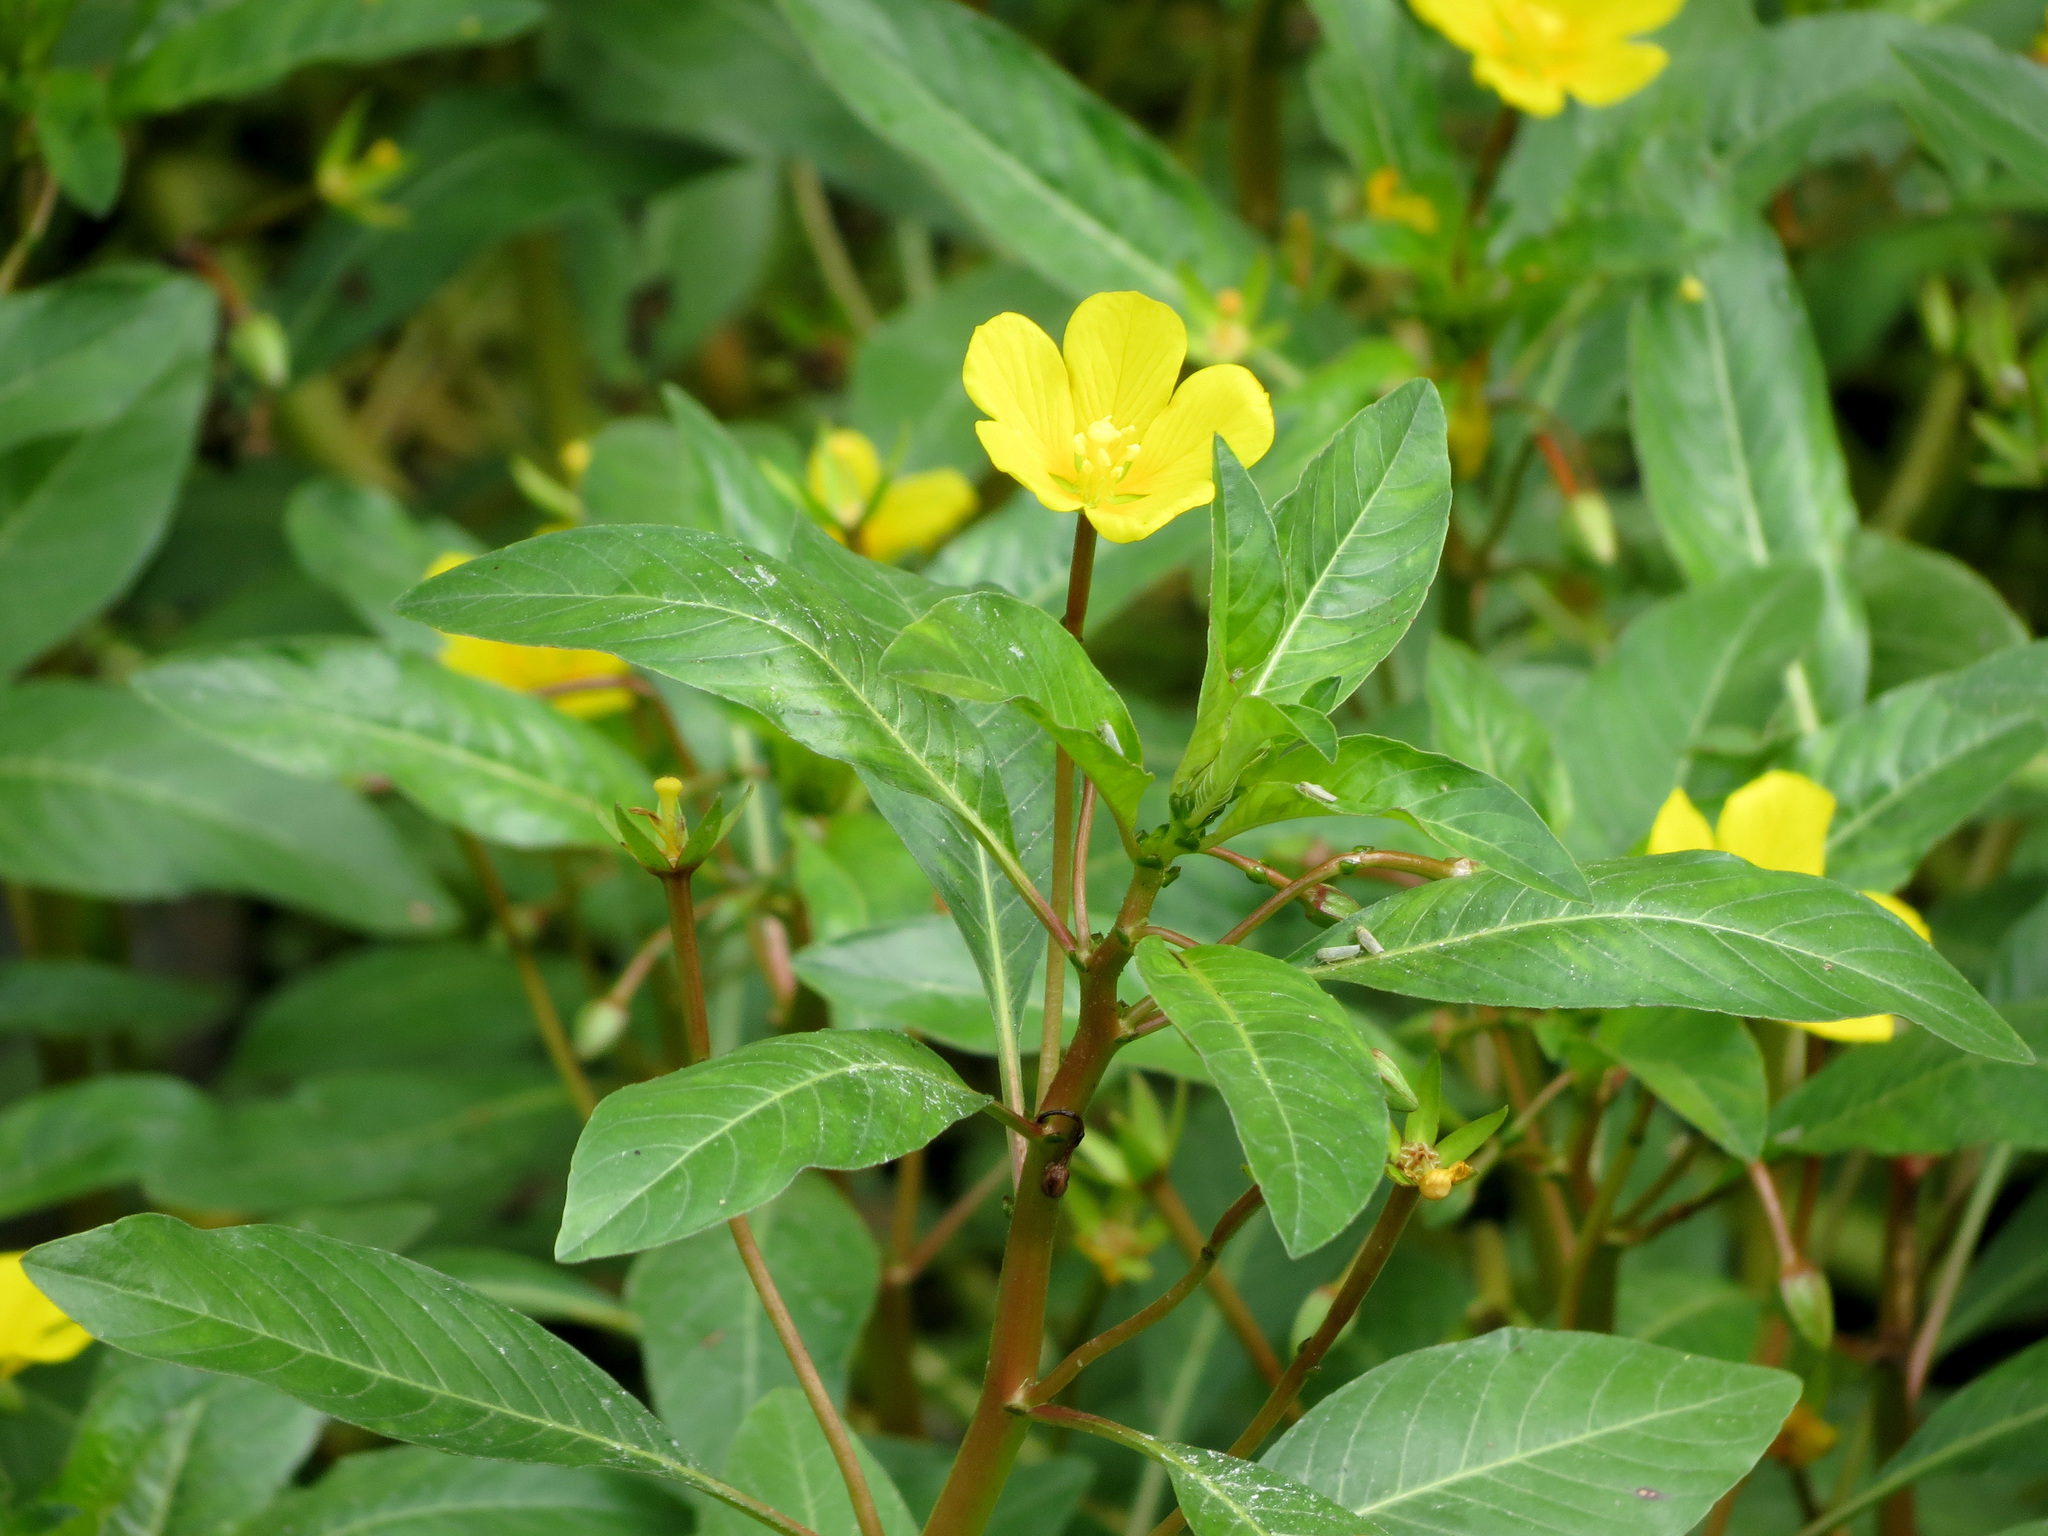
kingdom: Plantae
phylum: Tracheophyta
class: Magnoliopsida
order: Myrtales
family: Onagraceae
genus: Ludwigia
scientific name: Ludwigia peploides
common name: Floating primrose-willow
